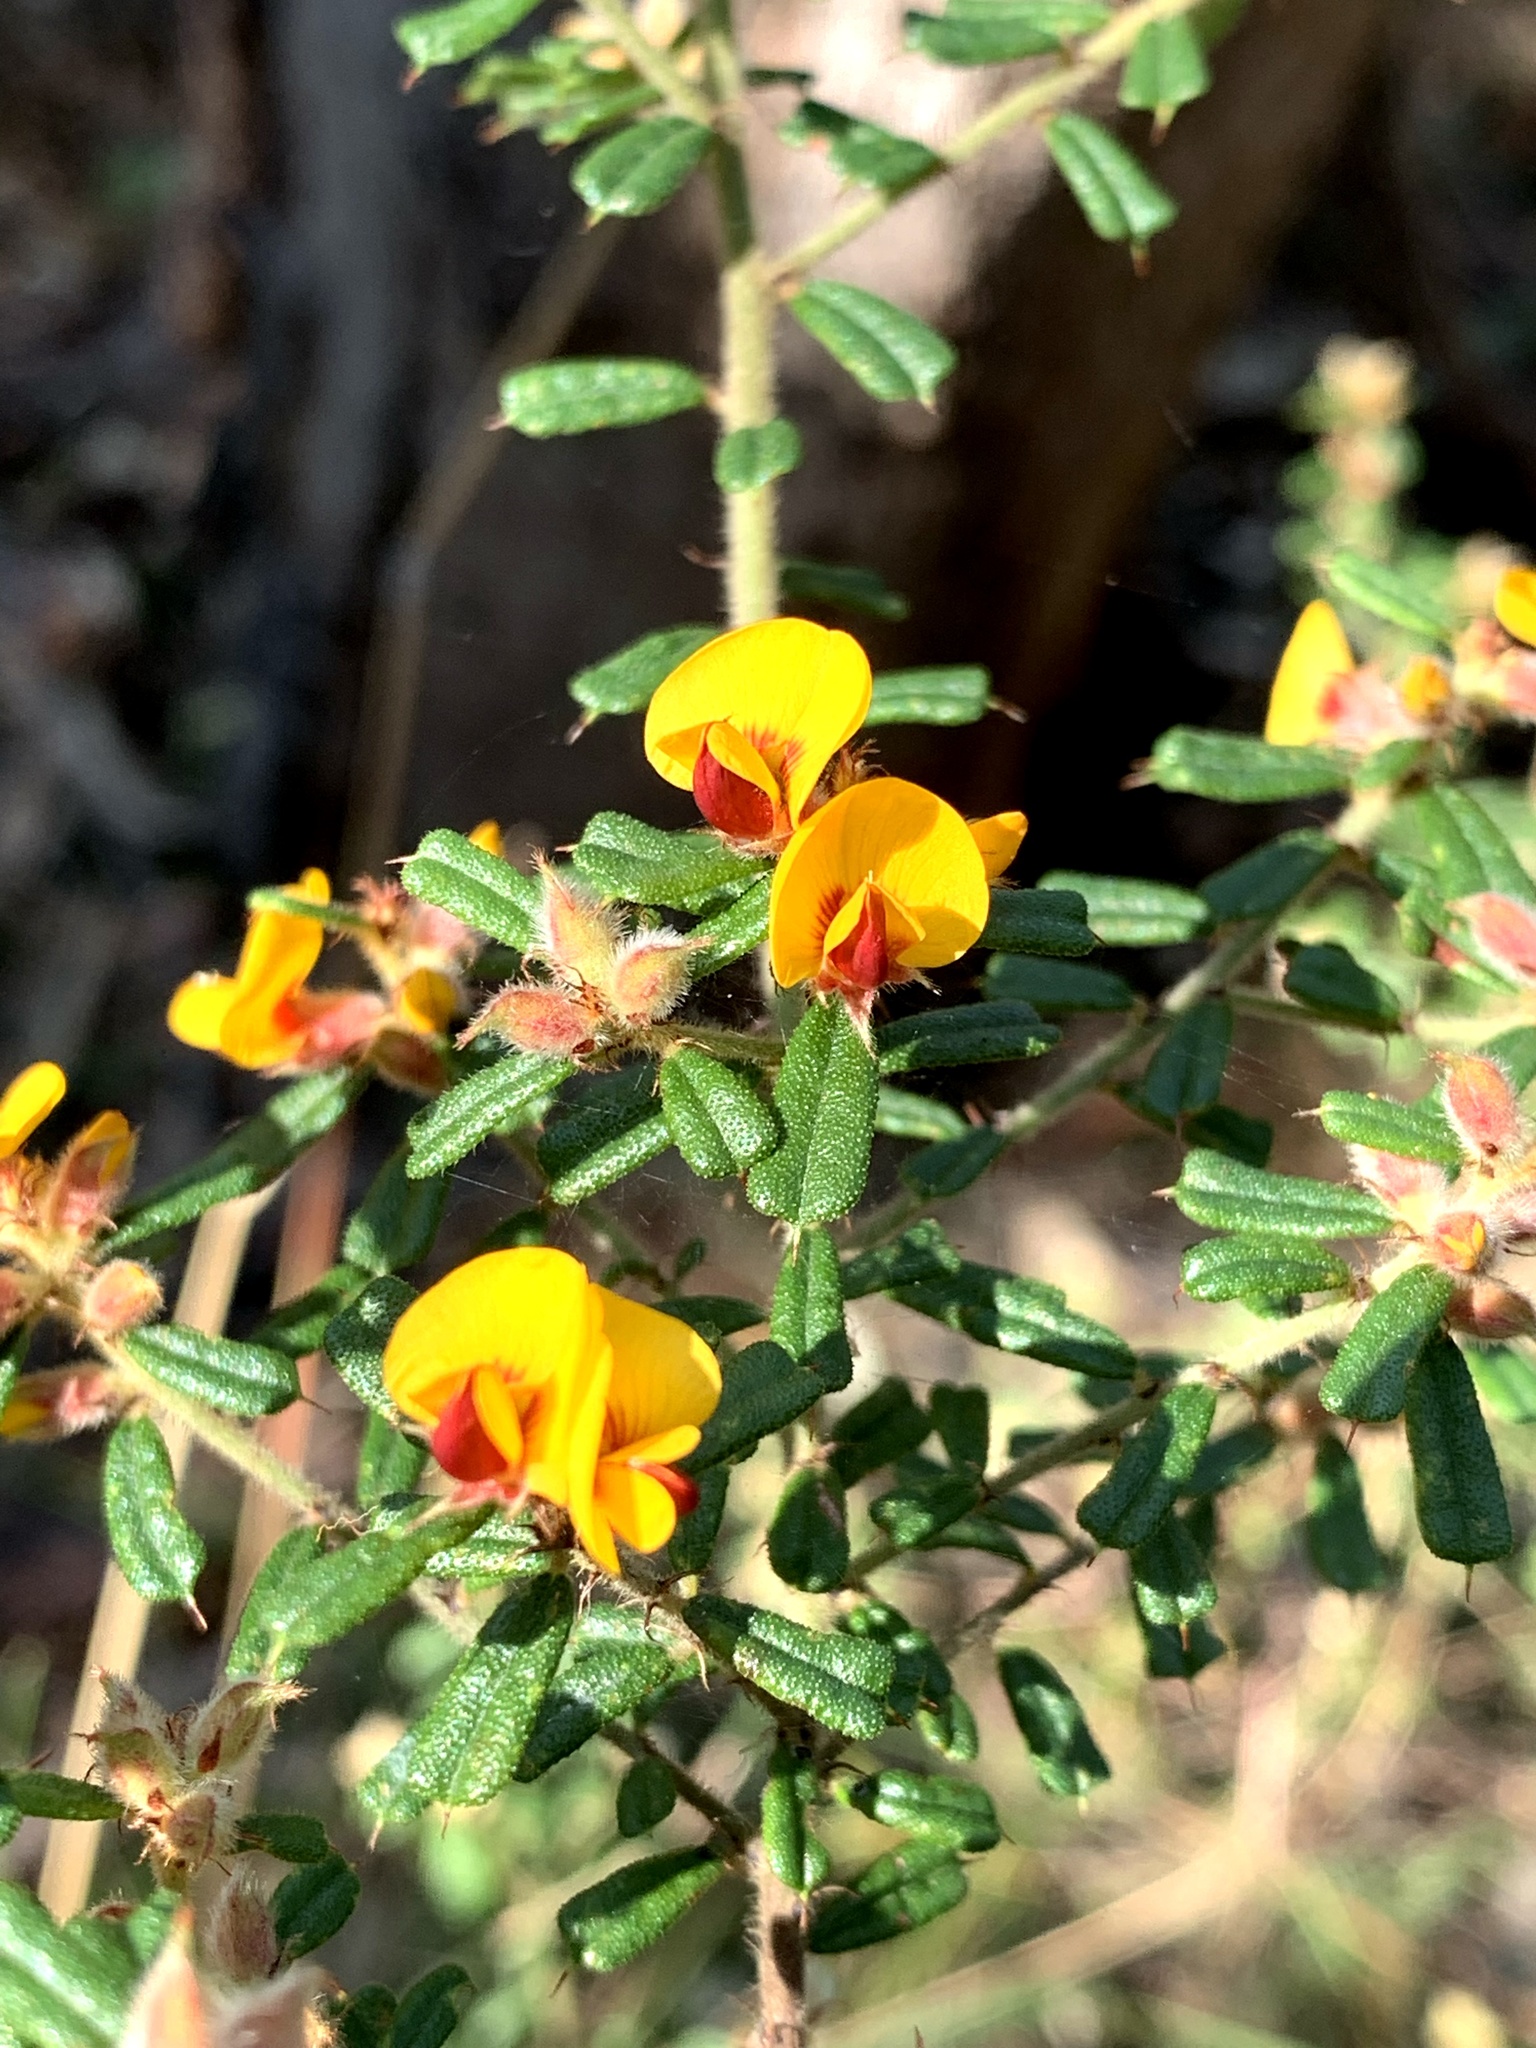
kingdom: Plantae
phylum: Tracheophyta
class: Magnoliopsida
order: Fabales
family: Fabaceae
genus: Pultenaea
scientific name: Pultenaea scabra
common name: Rough bush-pea
